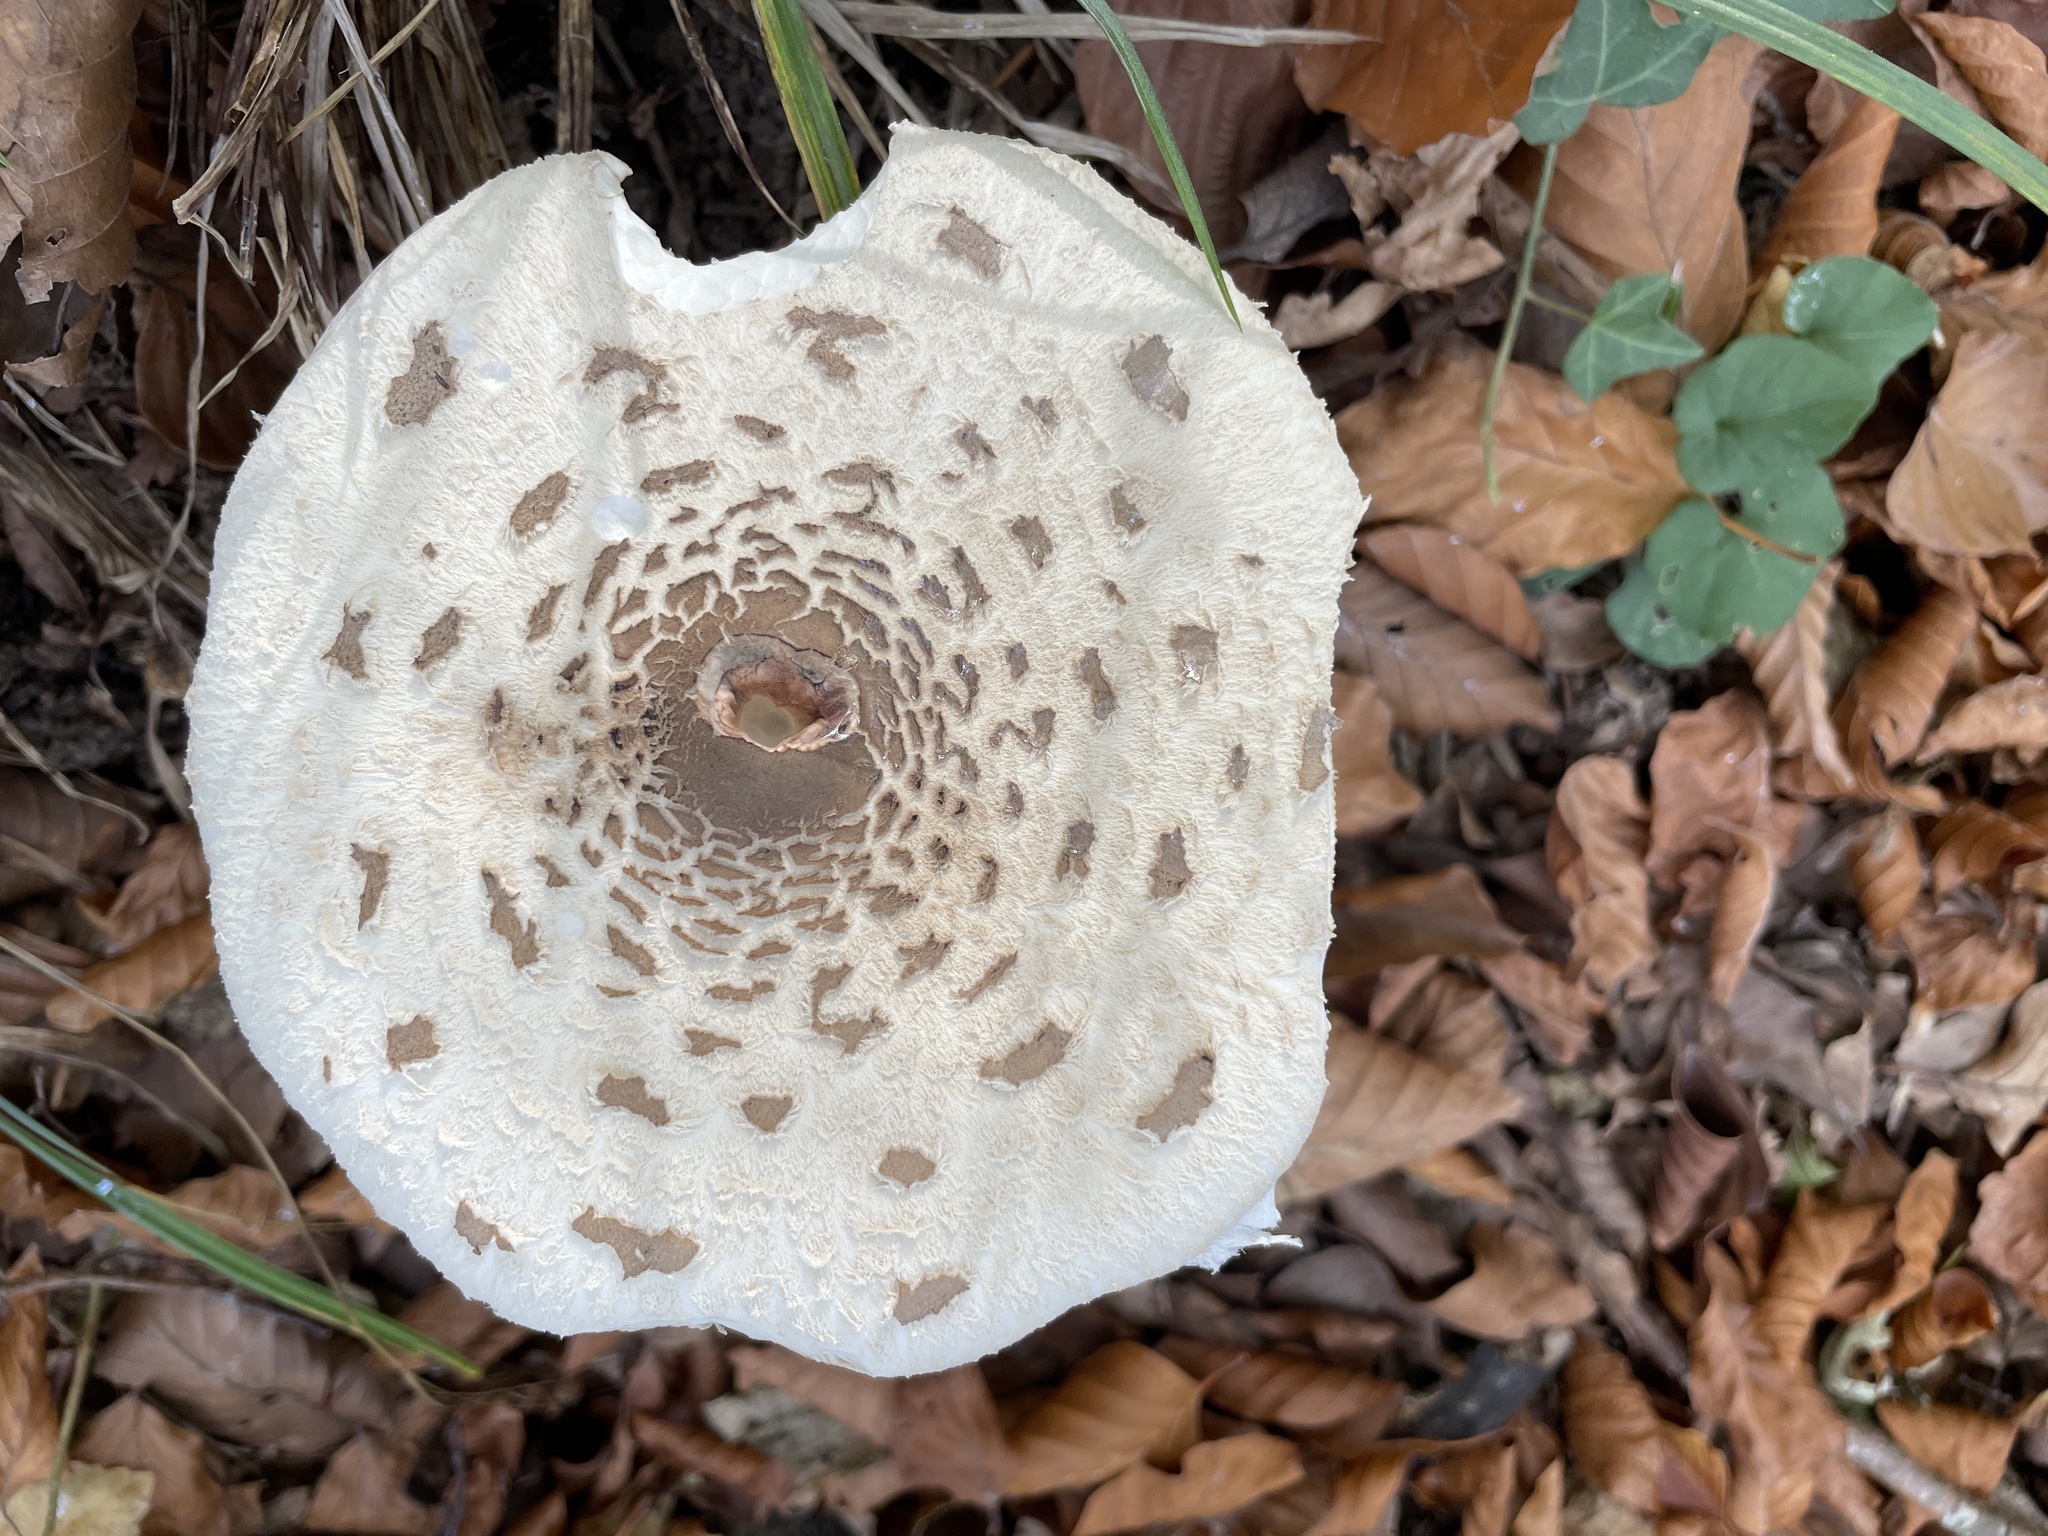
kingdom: Fungi
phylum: Basidiomycota
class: Agaricomycetes
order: Agaricales
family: Agaricaceae
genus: Macrolepiota
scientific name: Macrolepiota procera
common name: Parasol
